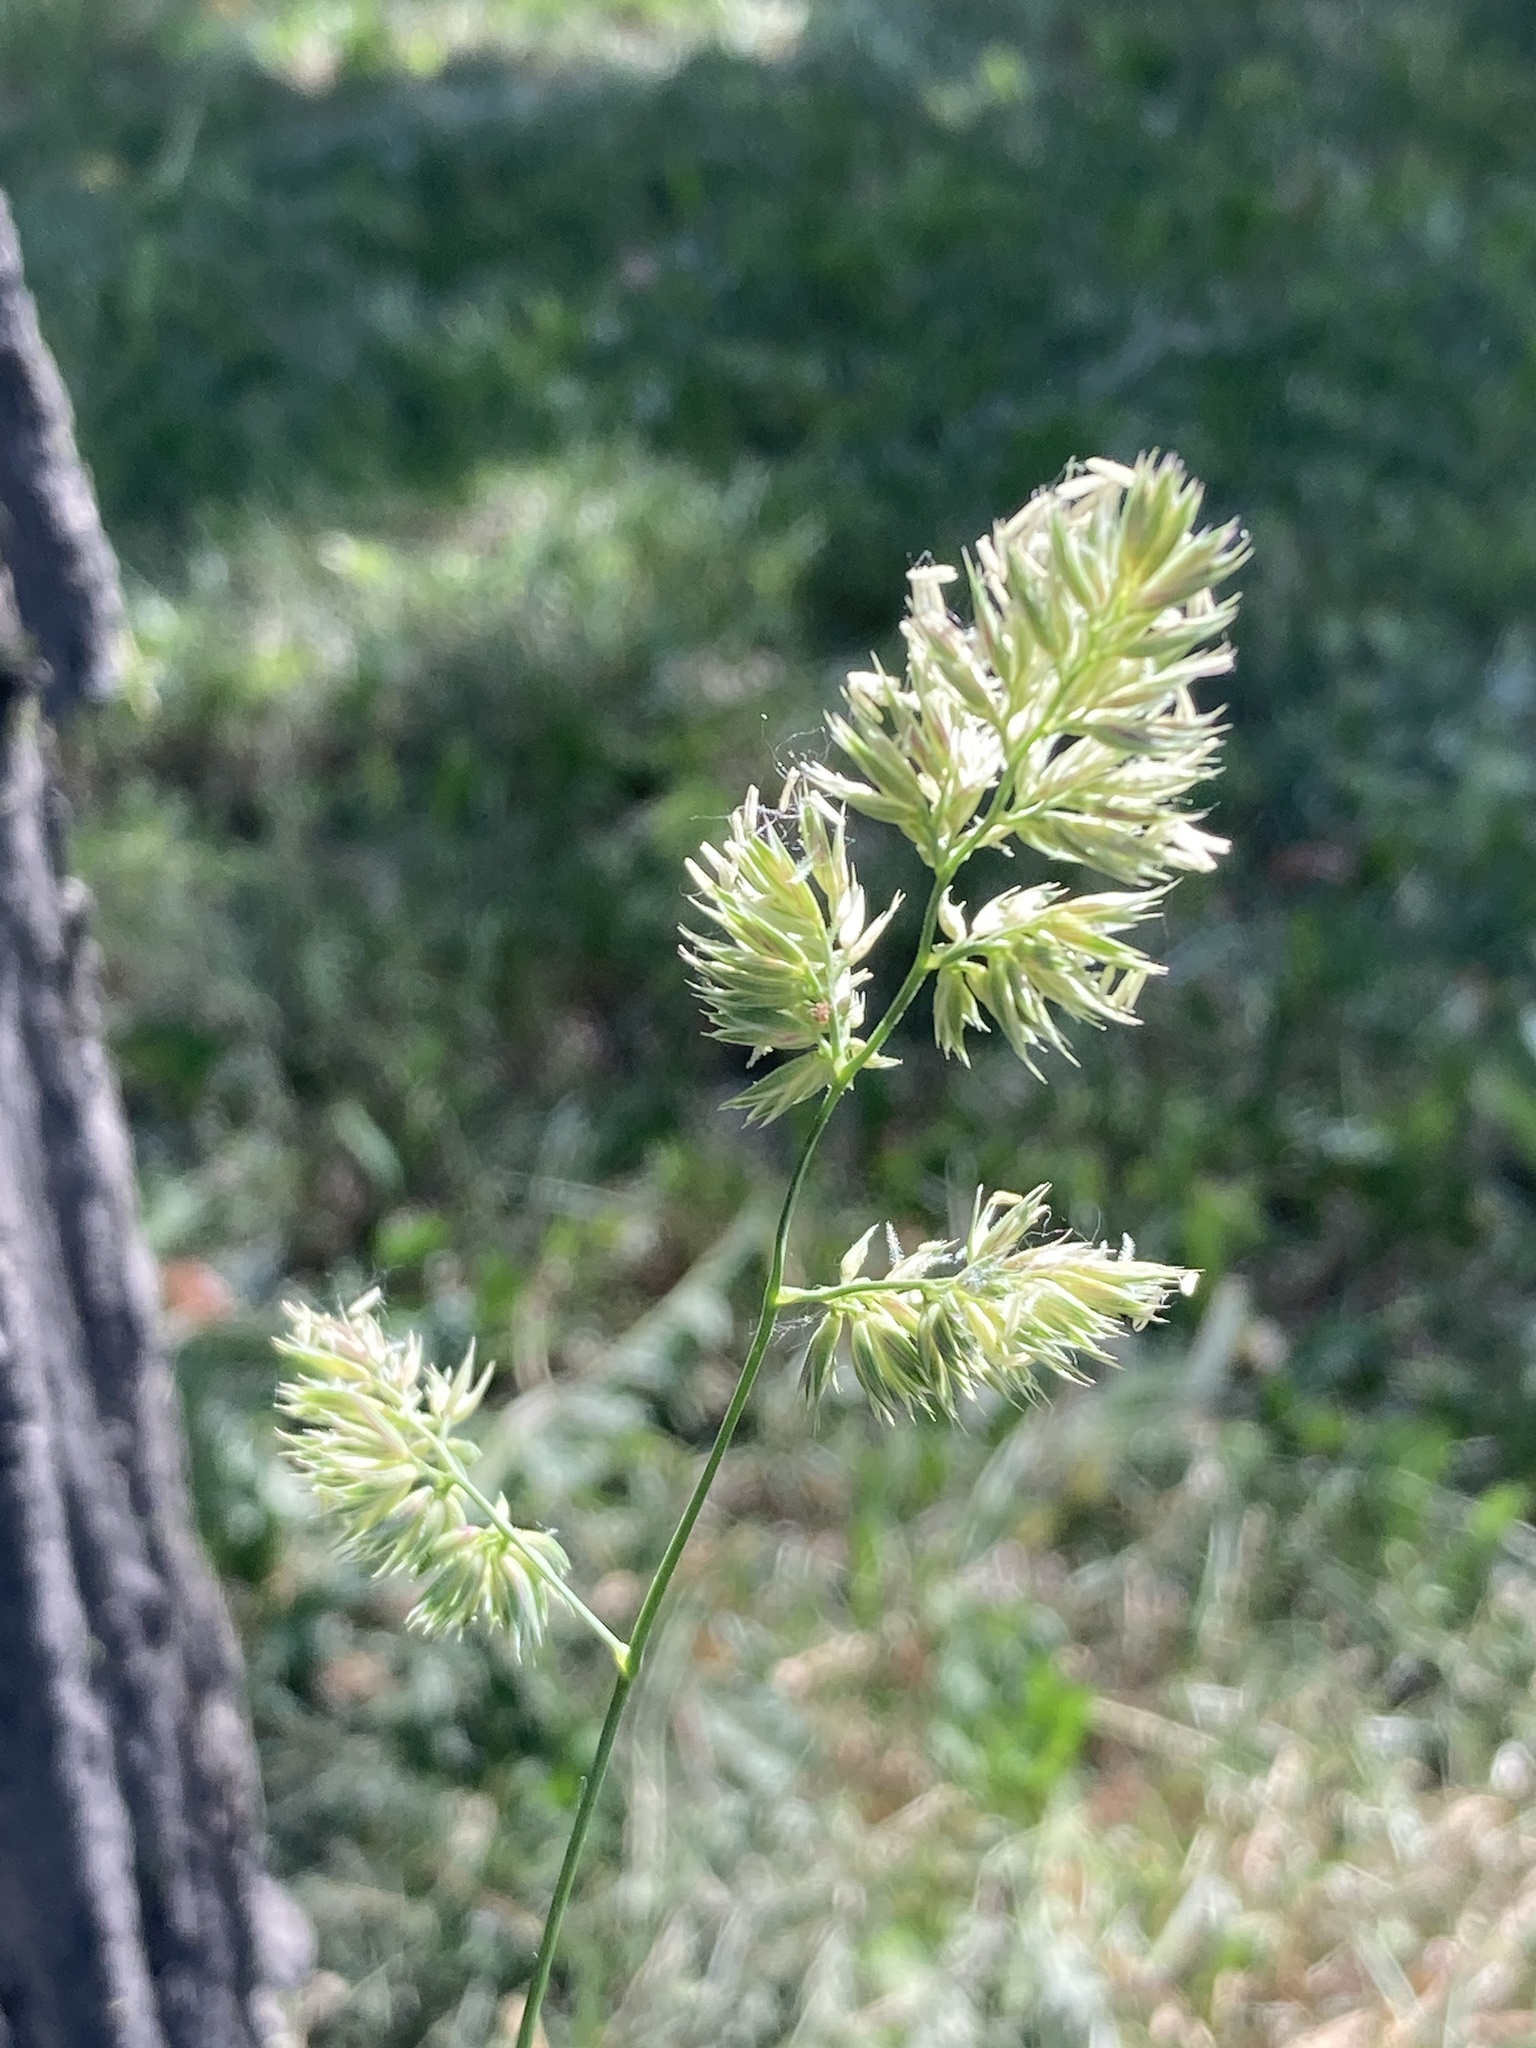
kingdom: Plantae
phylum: Tracheophyta
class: Liliopsida
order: Poales
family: Poaceae
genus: Dactylis
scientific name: Dactylis glomerata
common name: Orchardgrass
